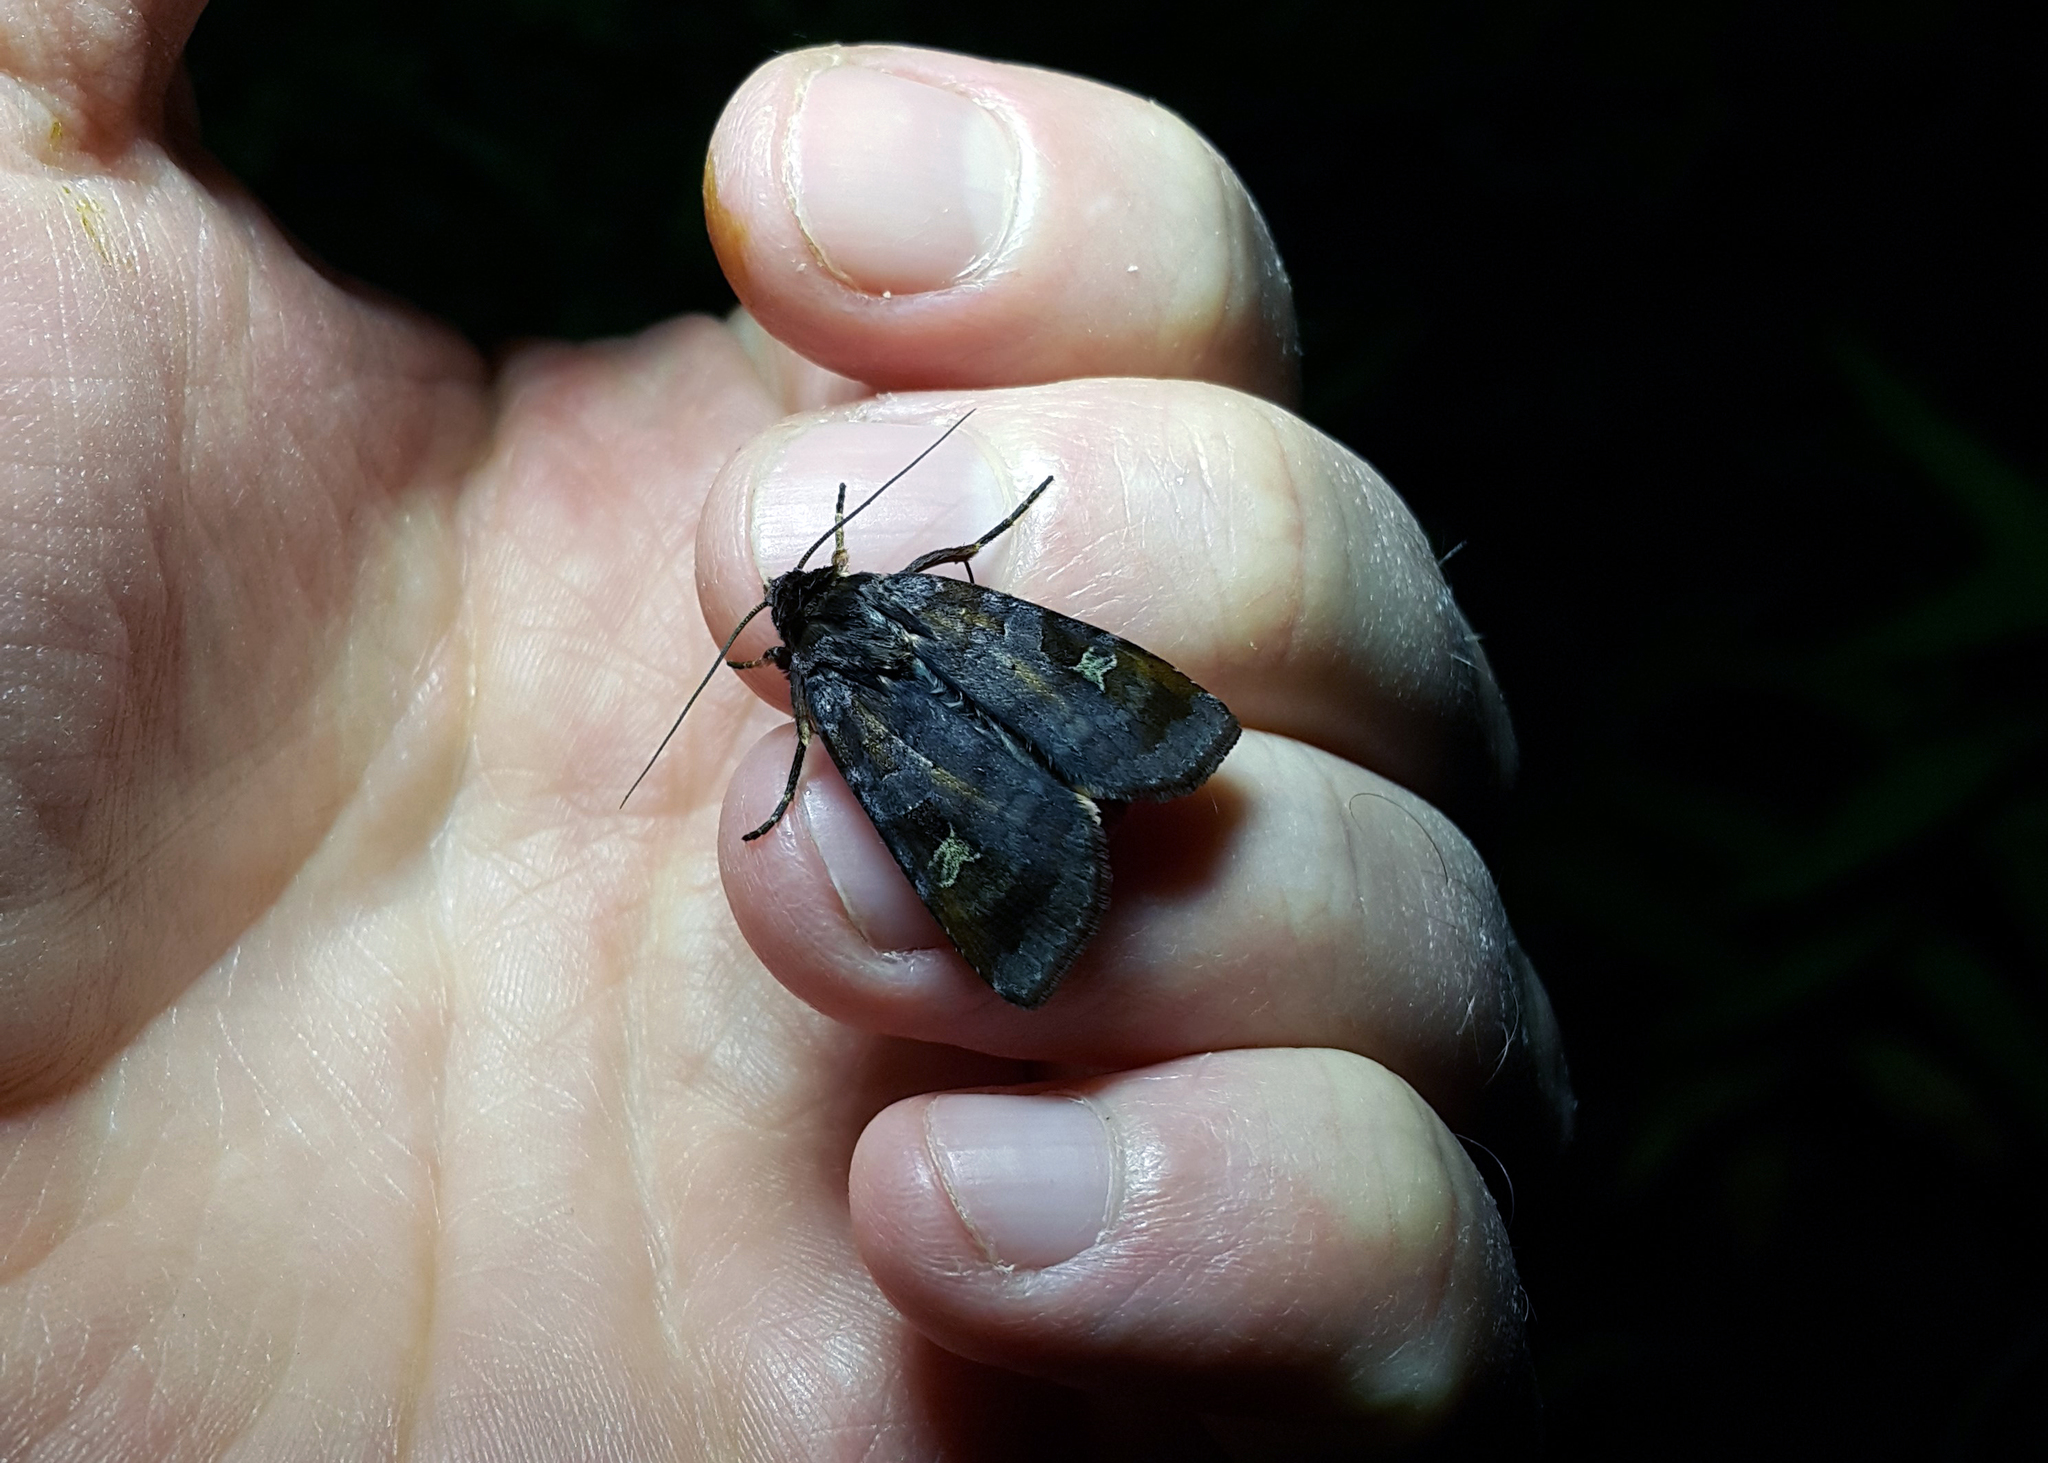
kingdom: Animalia
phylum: Arthropoda
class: Insecta
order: Lepidoptera
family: Noctuidae
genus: Diarsia
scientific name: Diarsia brunnea
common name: Purple clay
